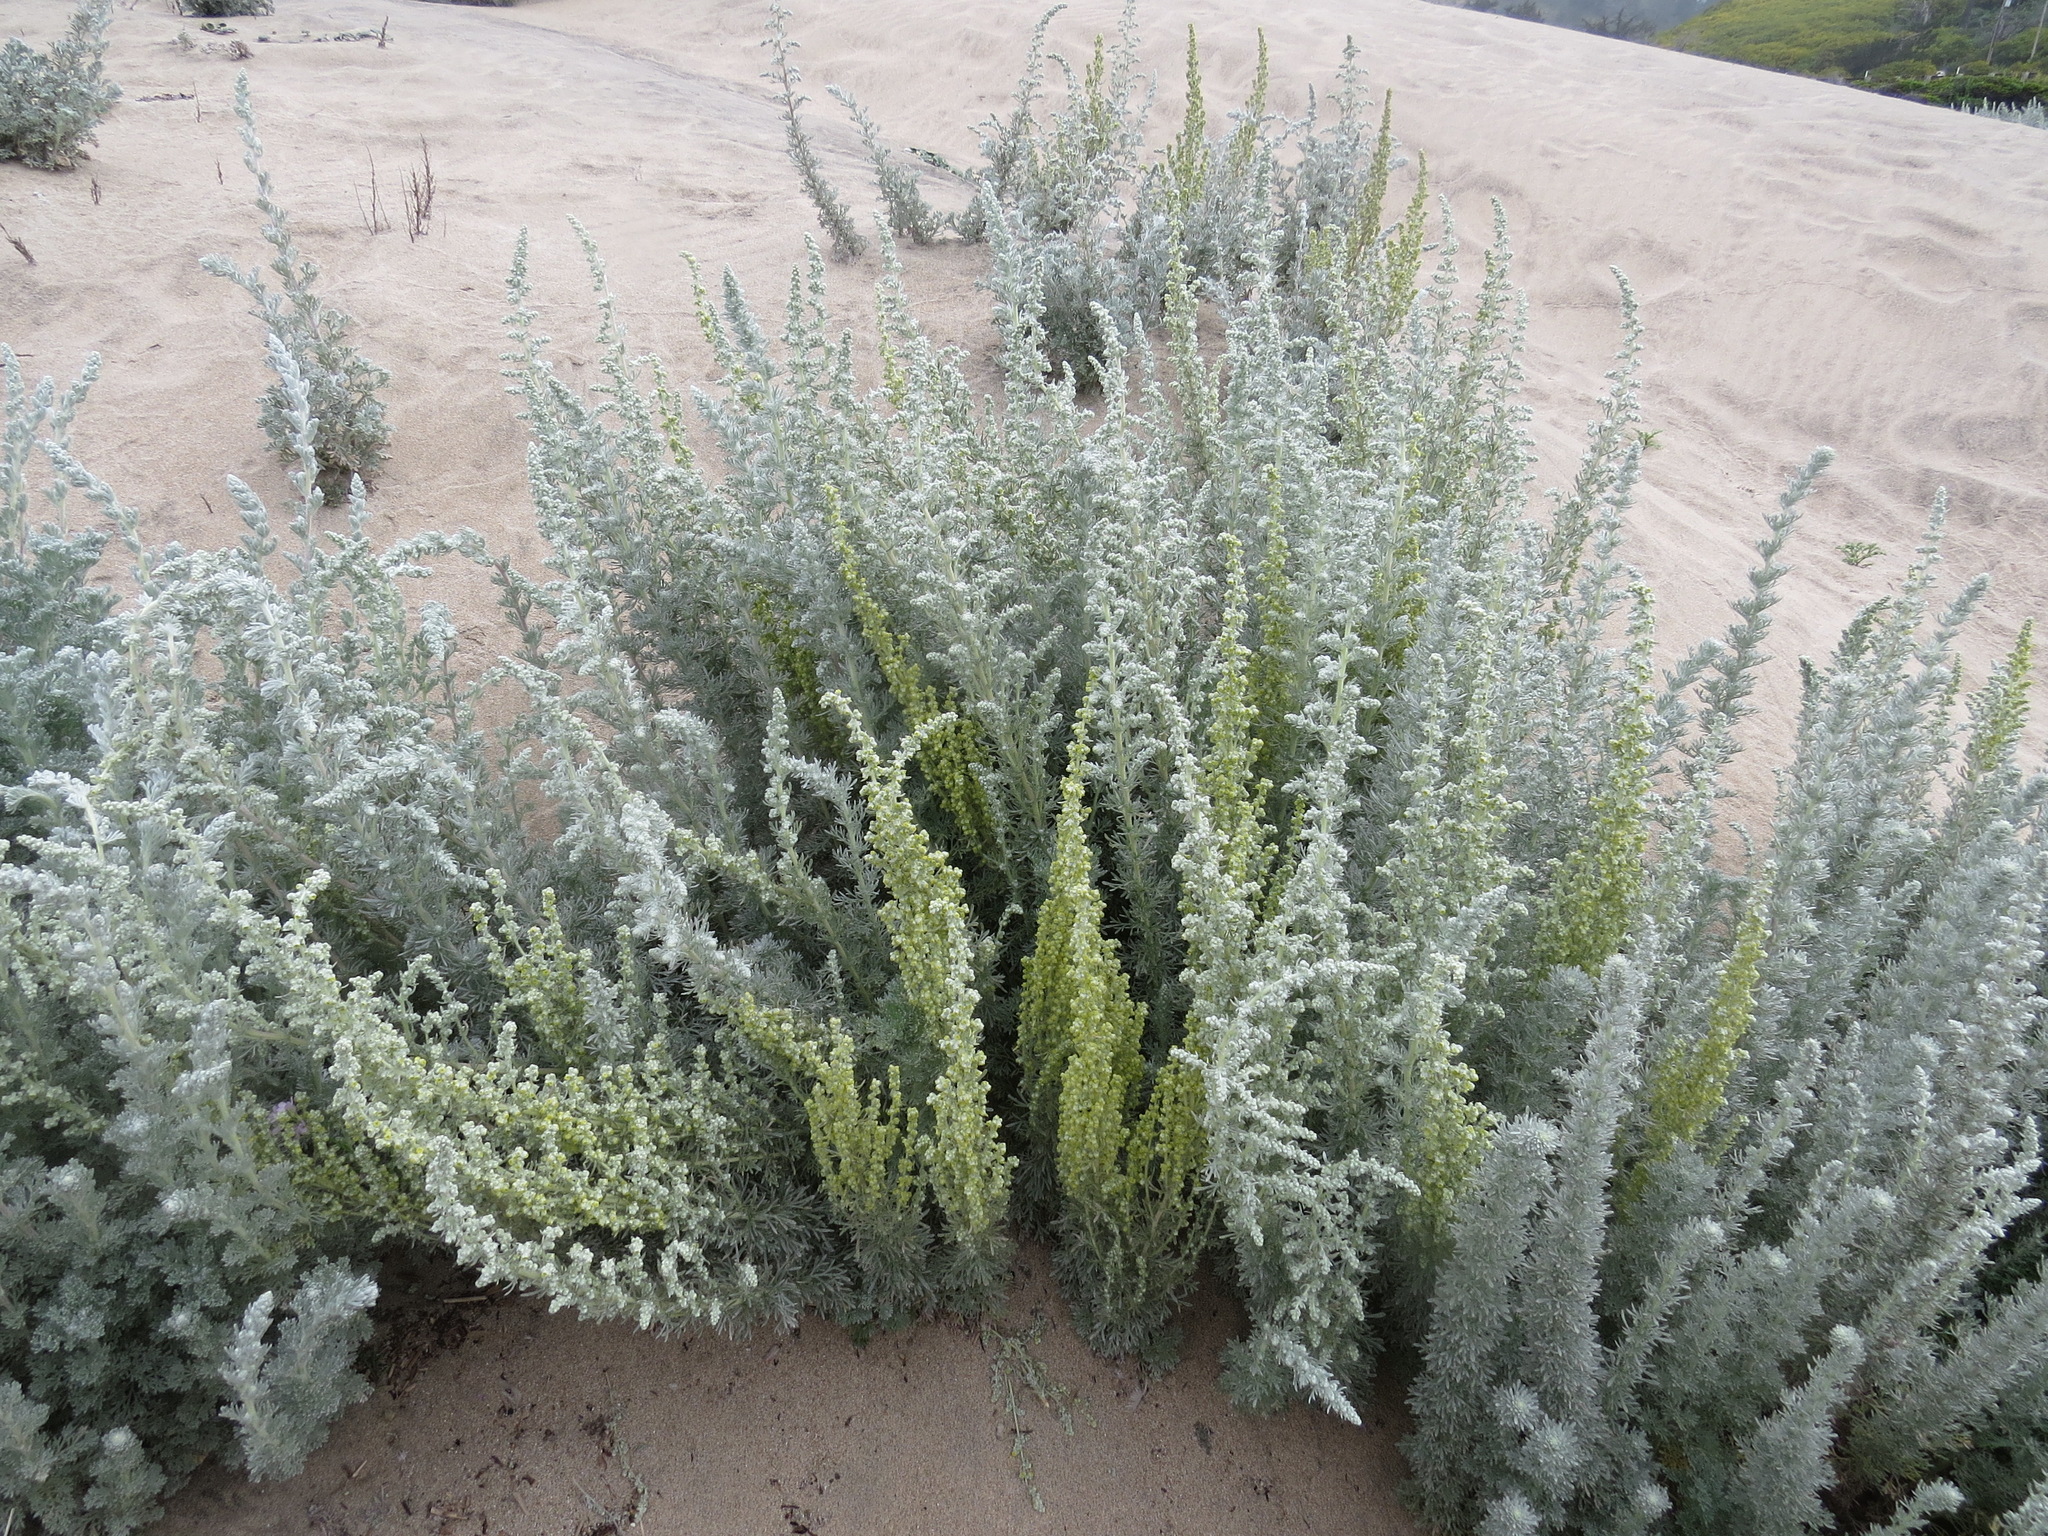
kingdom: Plantae
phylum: Tracheophyta
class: Magnoliopsida
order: Asterales
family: Asteraceae
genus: Artemisia
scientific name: Artemisia pycnocephala
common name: Coastal sagewort
